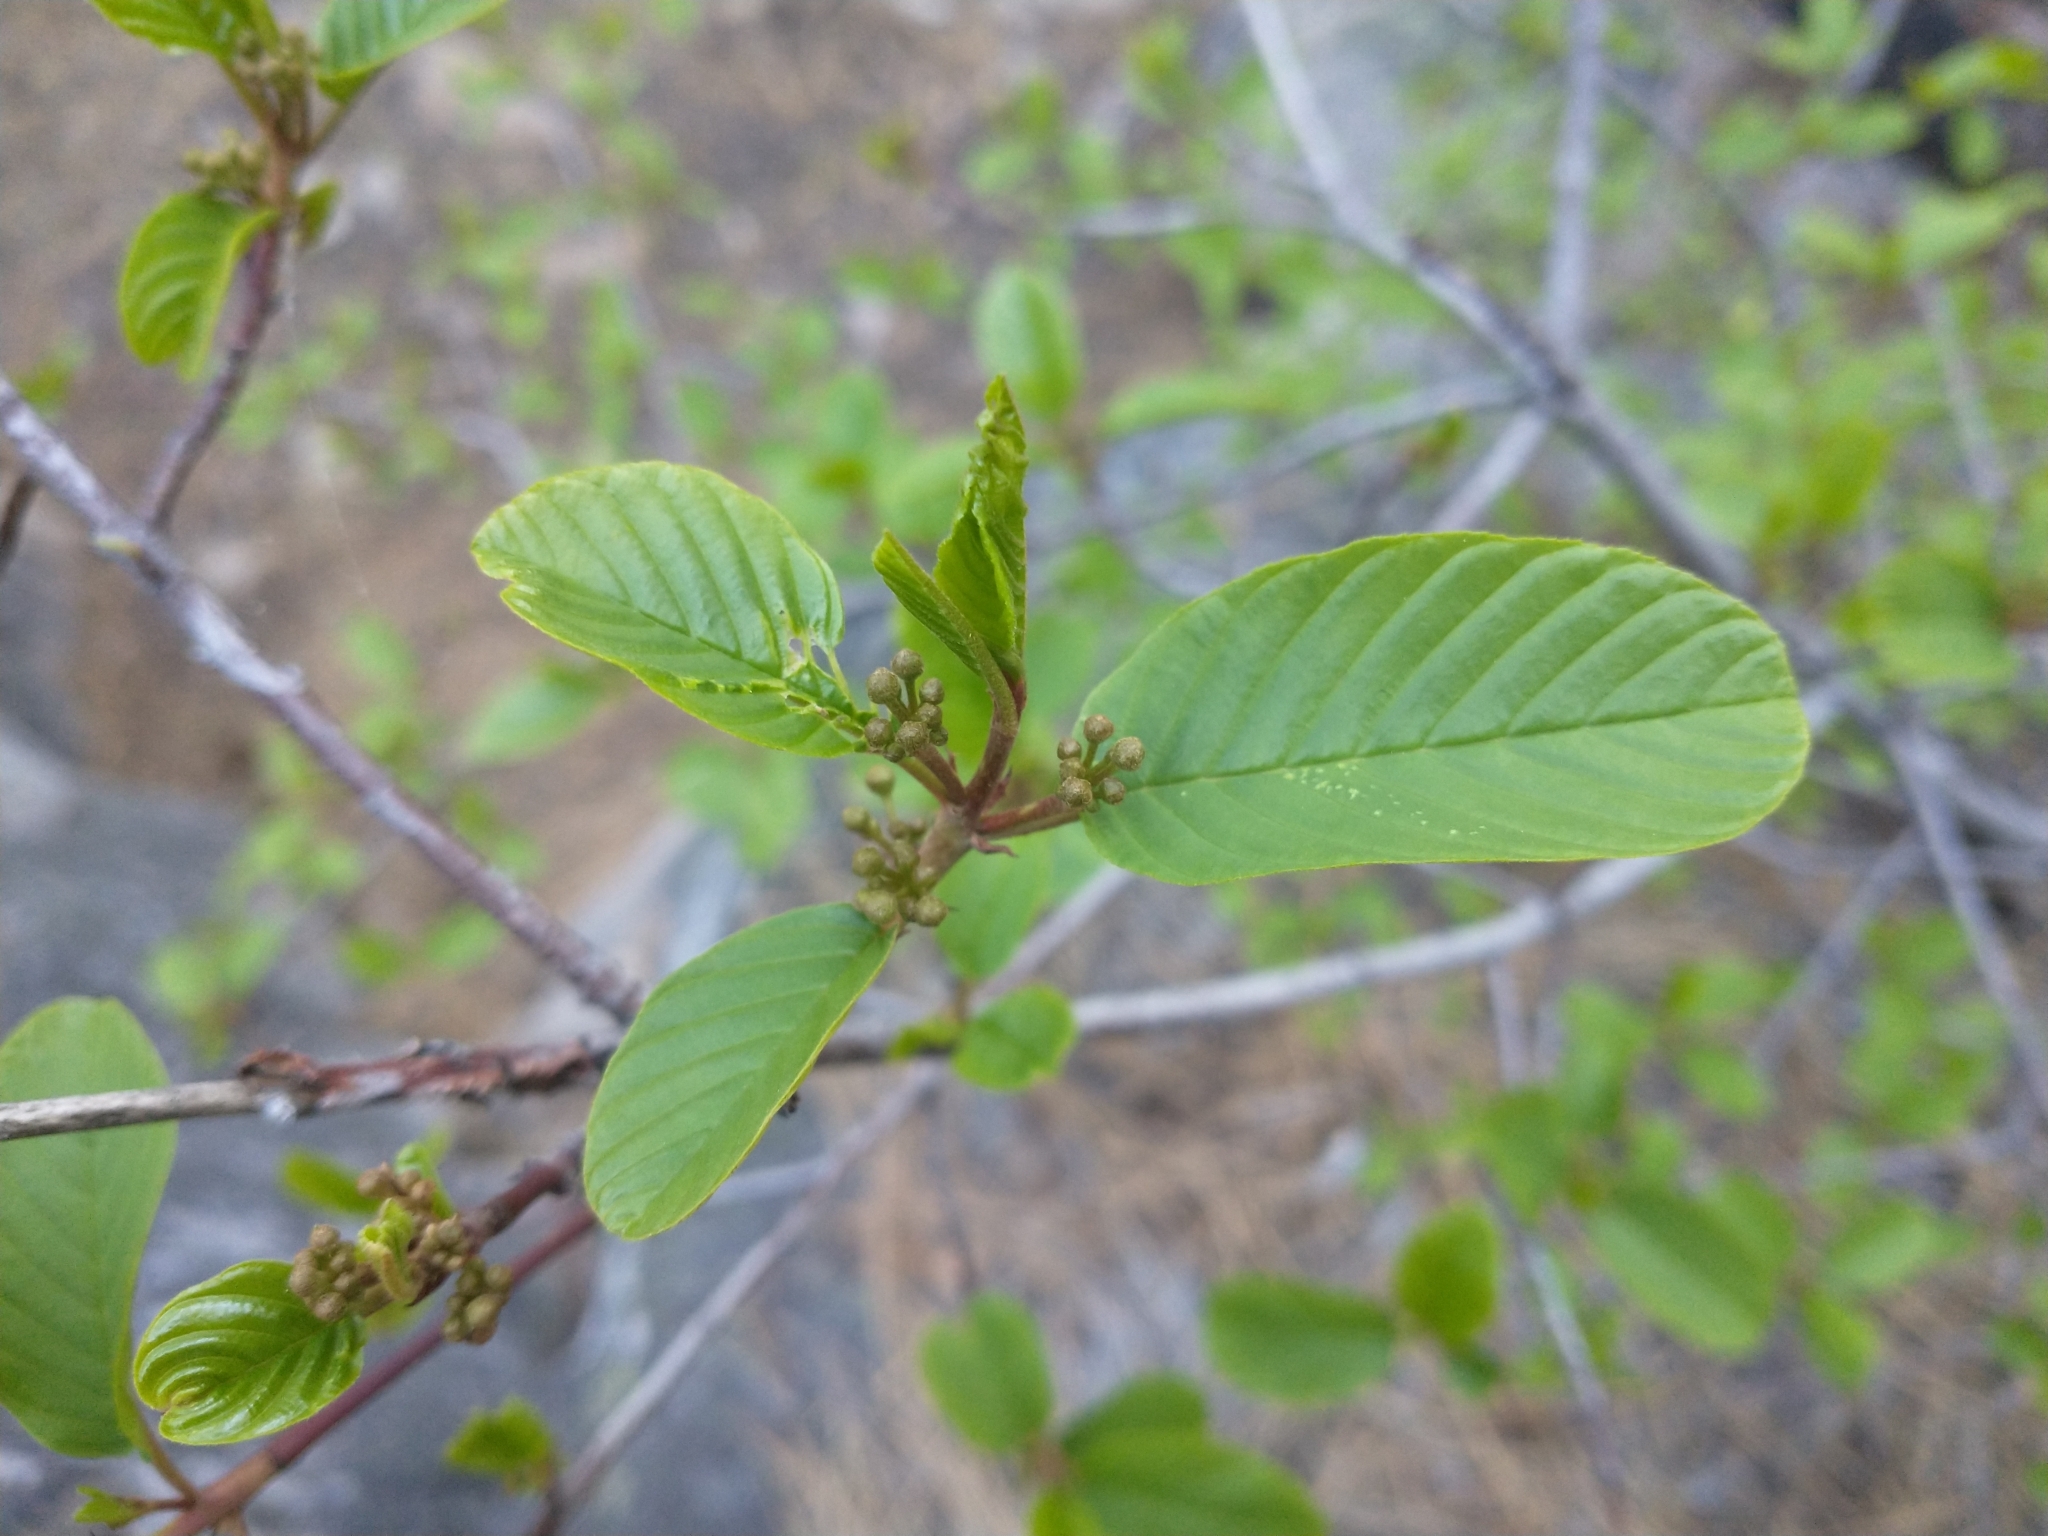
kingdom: Plantae
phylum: Tracheophyta
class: Magnoliopsida
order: Rosales
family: Rhamnaceae
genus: Frangula
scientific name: Frangula purshiana
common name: Cascara buckthorn
